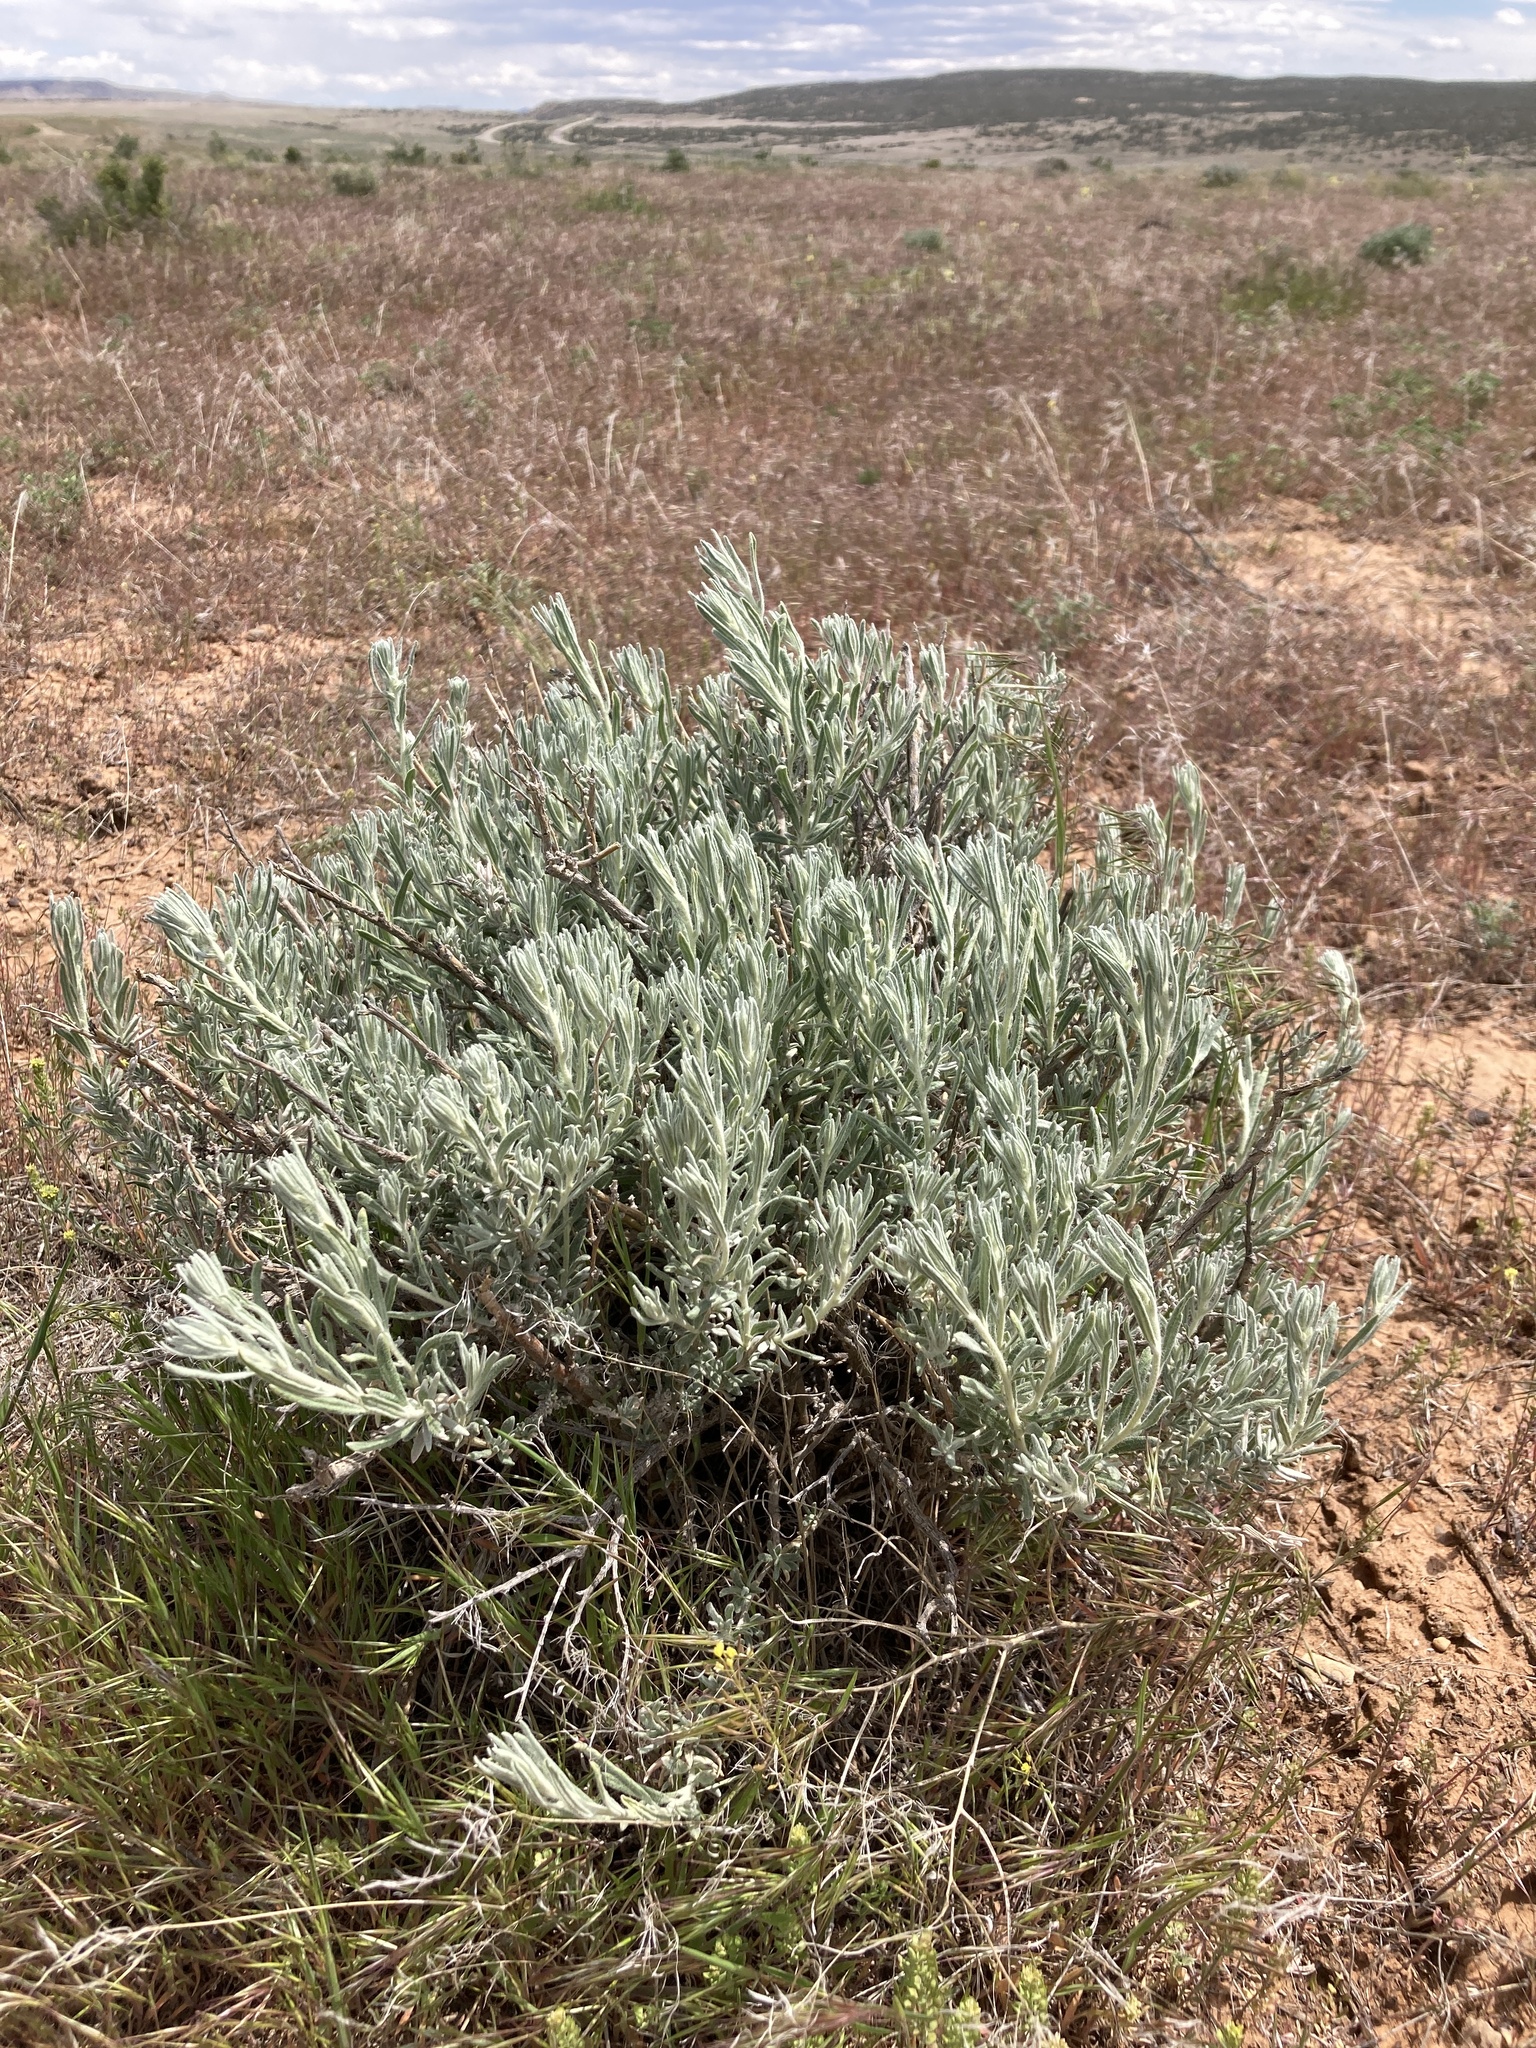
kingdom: Plantae
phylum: Tracheophyta
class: Magnoliopsida
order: Caryophyllales
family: Amaranthaceae
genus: Krascheninnikovia
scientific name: Krascheninnikovia lanata
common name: Winterfat
